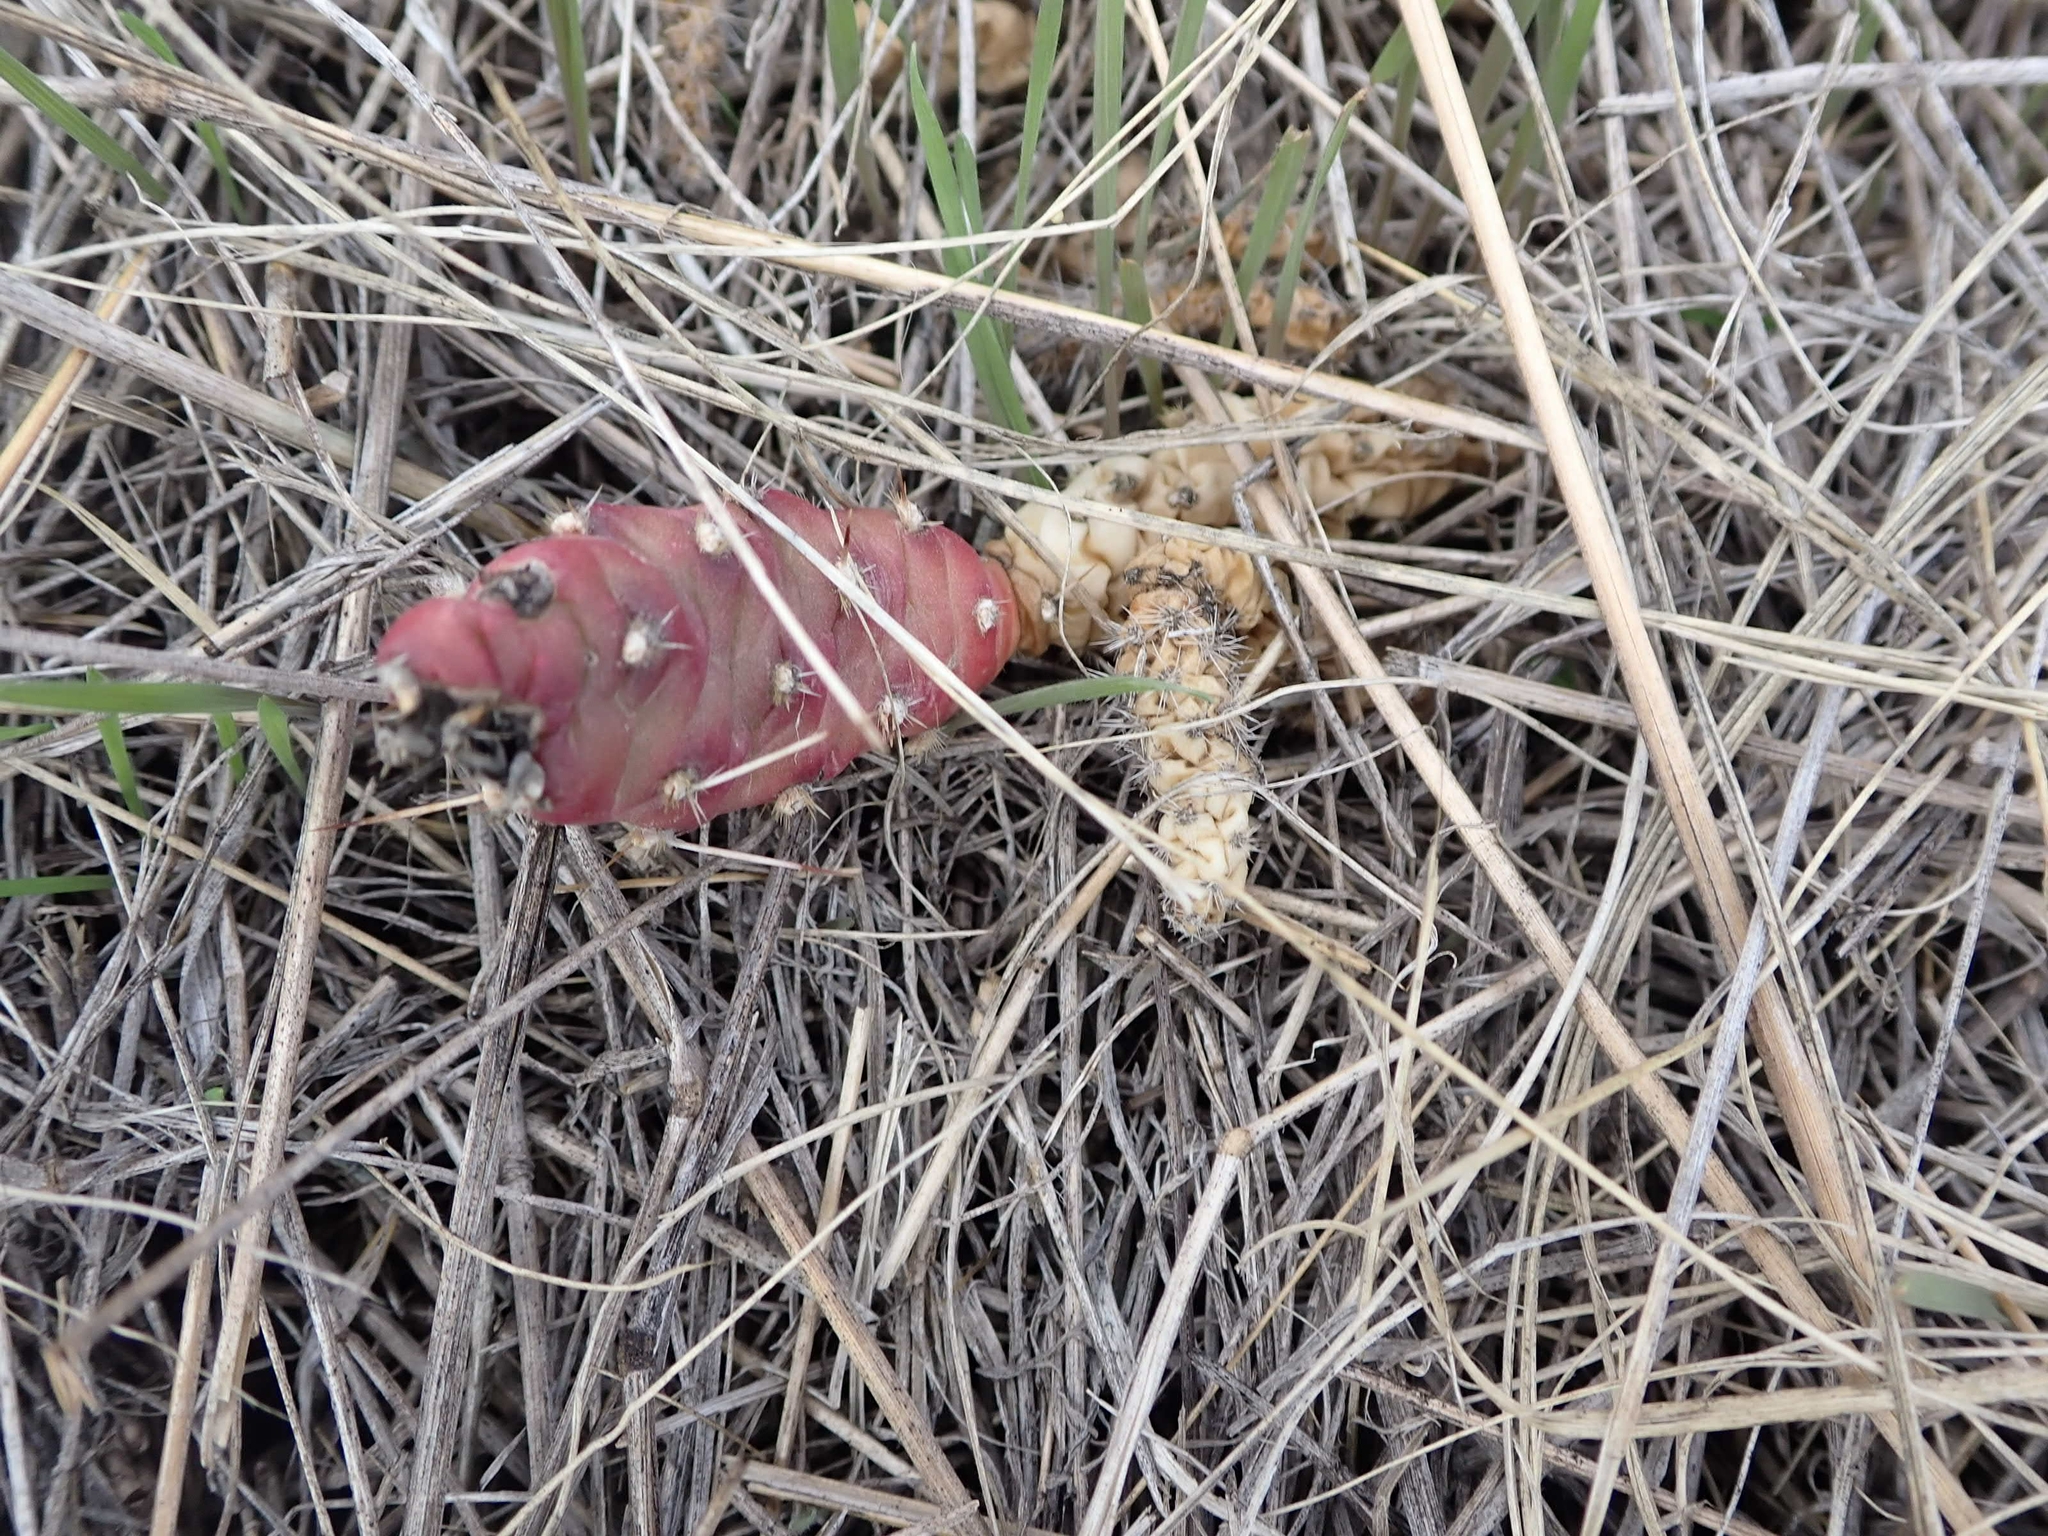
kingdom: Plantae
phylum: Tracheophyta
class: Magnoliopsida
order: Caryophyllales
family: Cactaceae
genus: Opuntia
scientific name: Opuntia fragilis
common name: Brittle cactus
